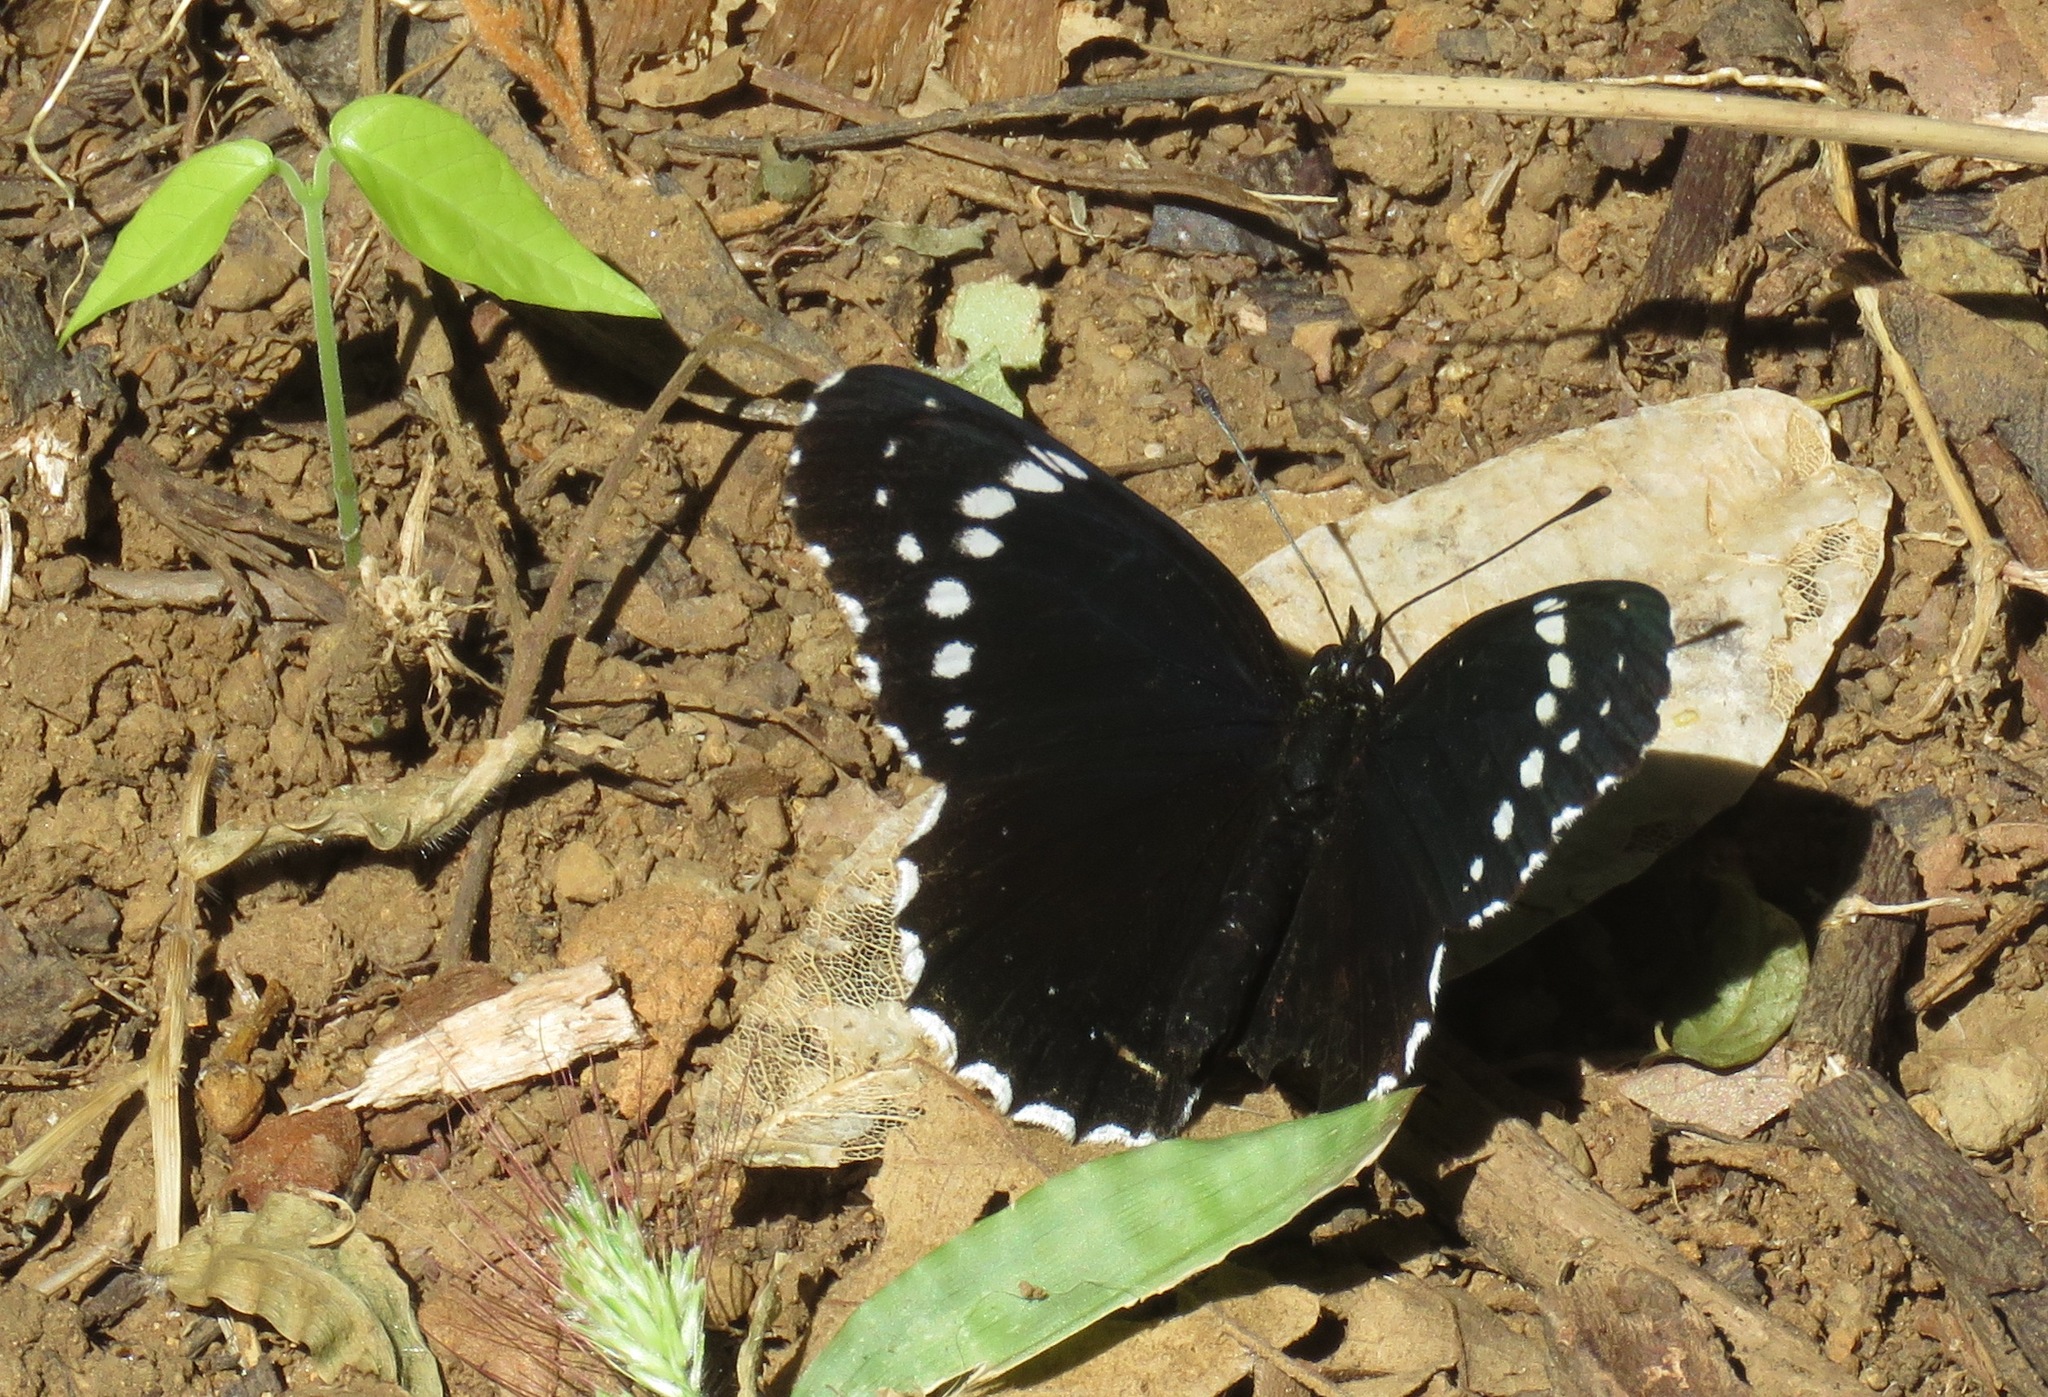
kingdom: Animalia
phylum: Arthropoda
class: Insecta
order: Lepidoptera
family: Nymphalidae
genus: Chlosyne
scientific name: Chlosyne hippodrome
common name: Simple patch
